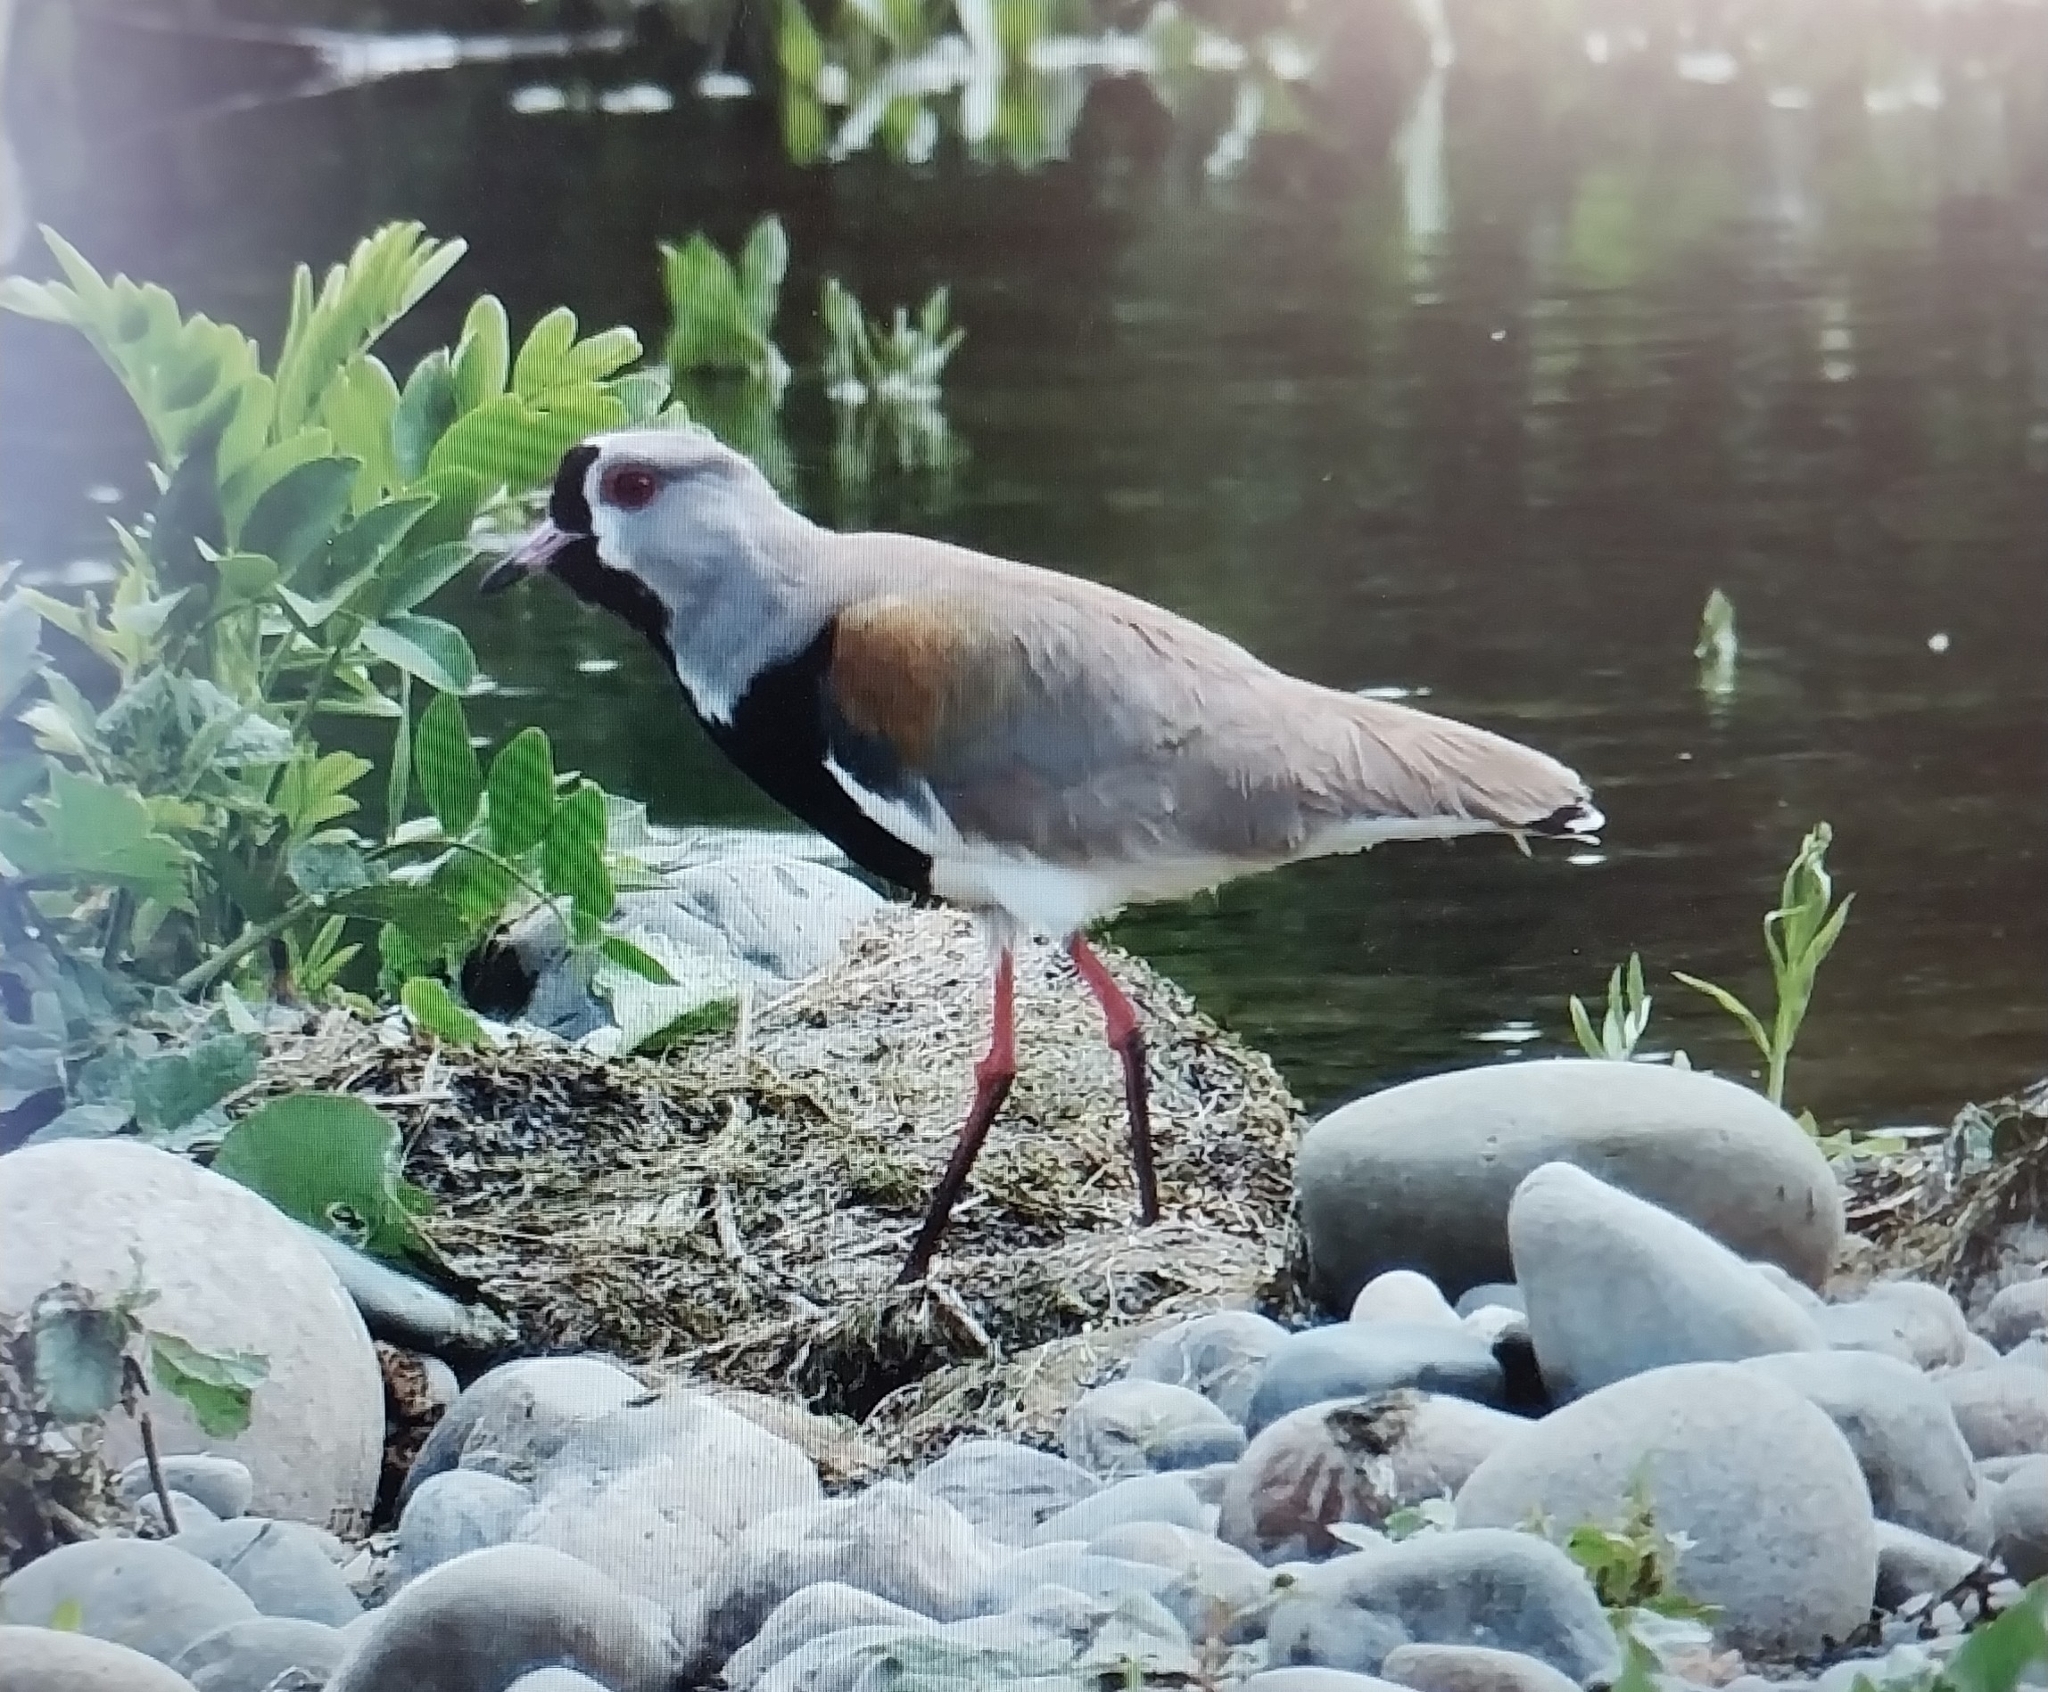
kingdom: Animalia
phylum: Chordata
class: Aves
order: Charadriiformes
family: Charadriidae
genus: Vanellus
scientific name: Vanellus chilensis
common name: Southern lapwing
